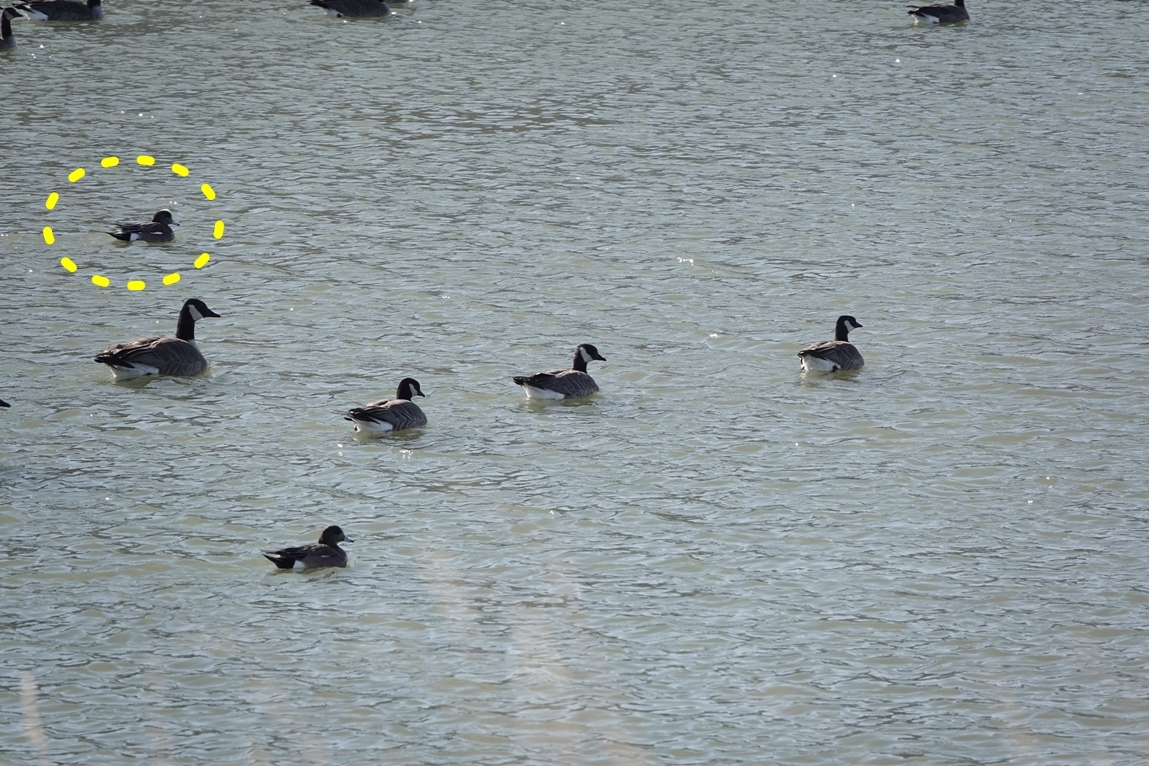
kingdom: Animalia
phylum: Chordata
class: Aves
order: Anseriformes
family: Anatidae
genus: Mareca
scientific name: Mareca americana
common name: American wigeon
